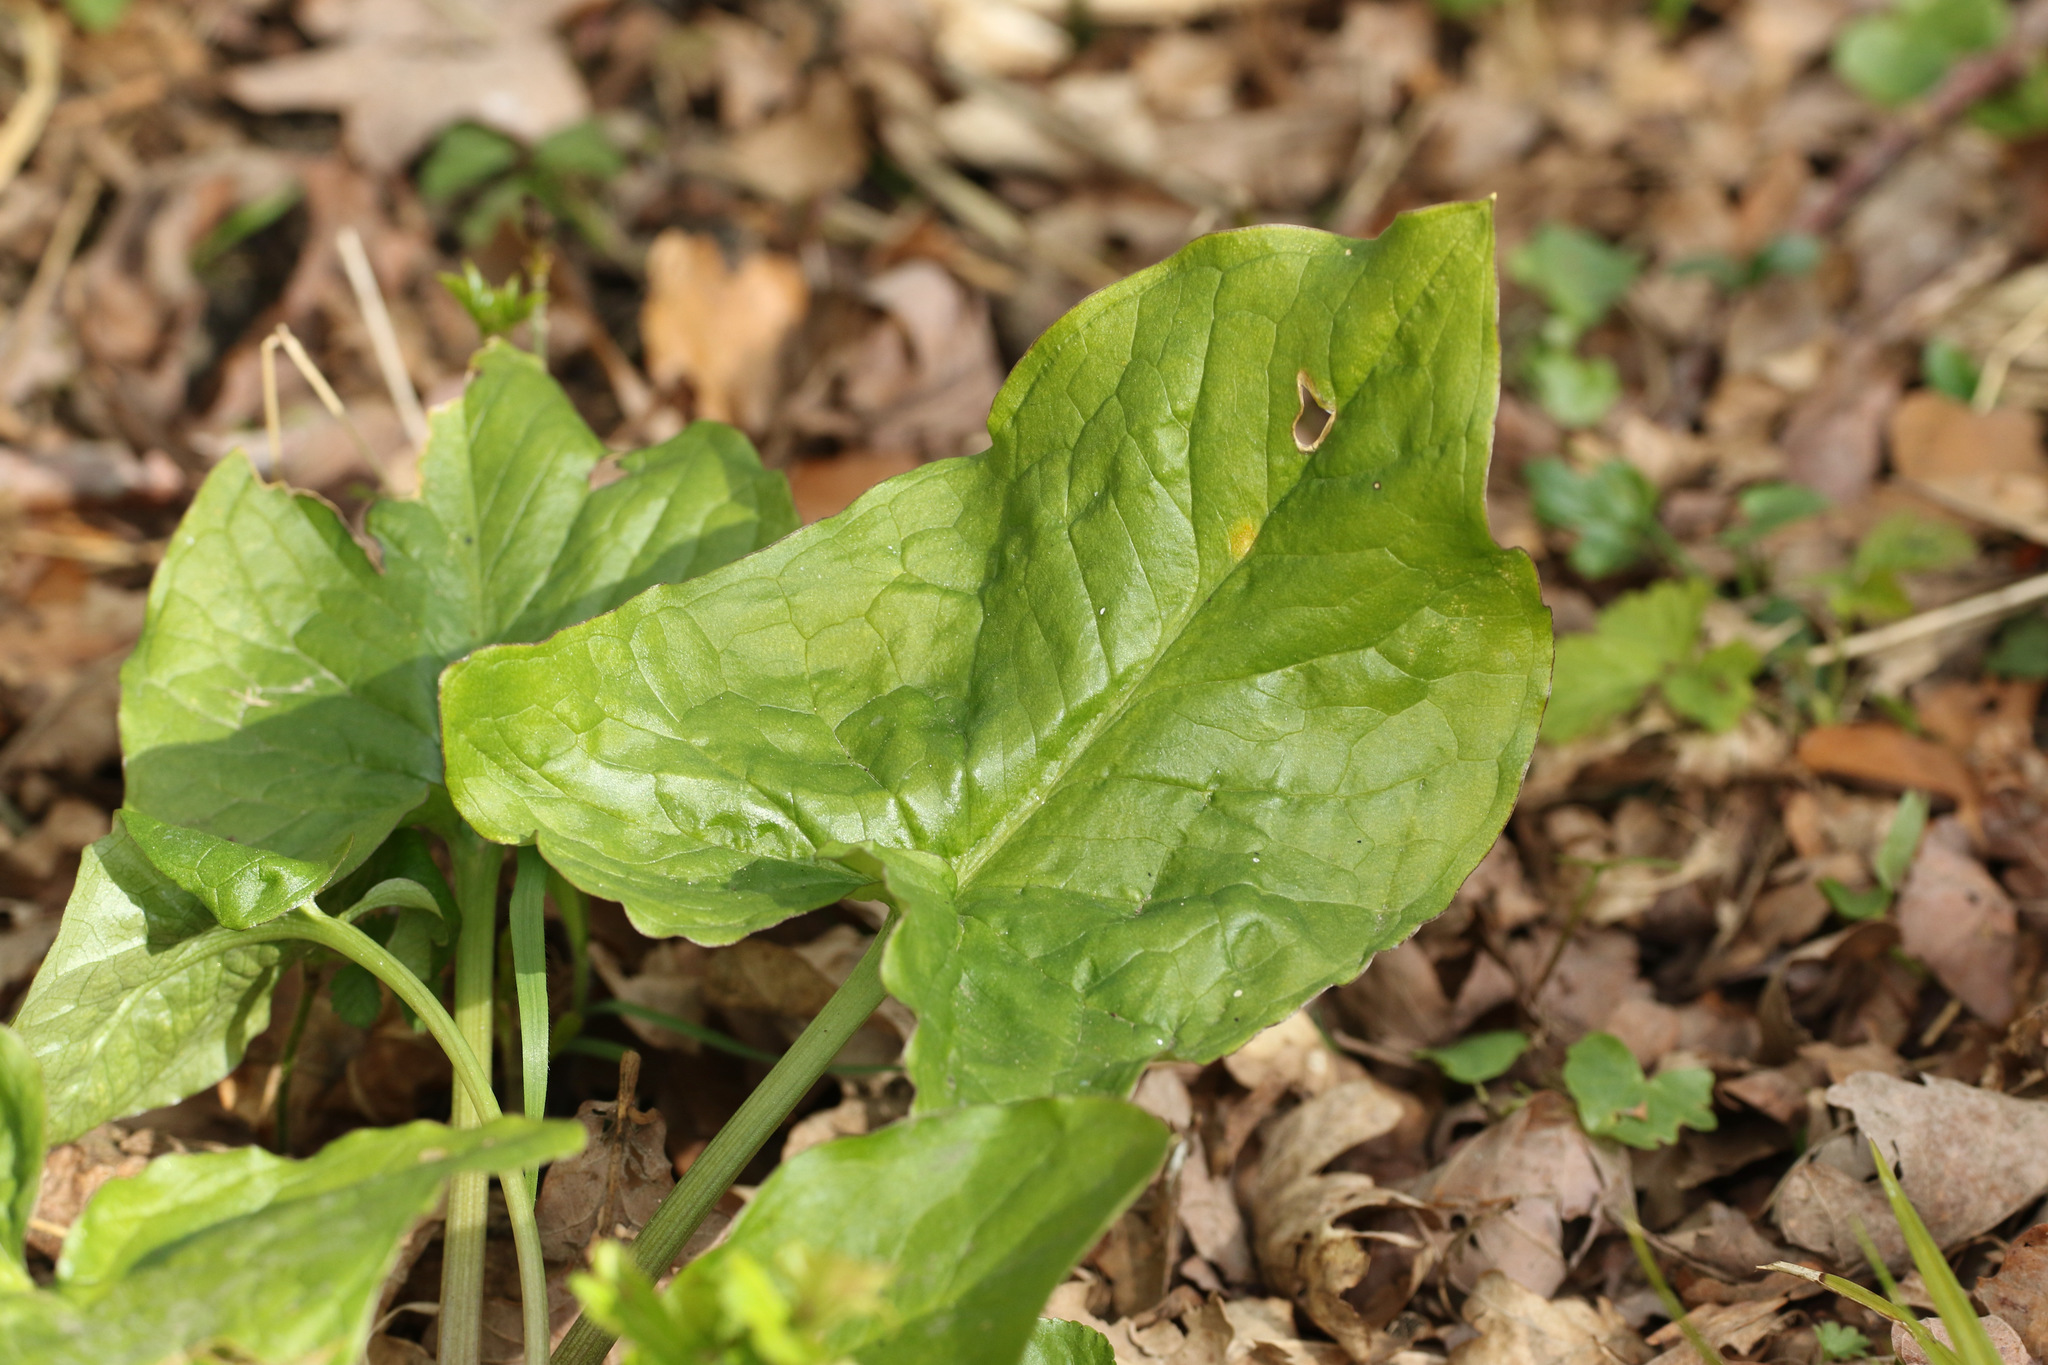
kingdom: Plantae
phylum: Tracheophyta
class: Liliopsida
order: Alismatales
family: Araceae
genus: Arum
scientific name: Arum maculatum
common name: Lords-and-ladies
